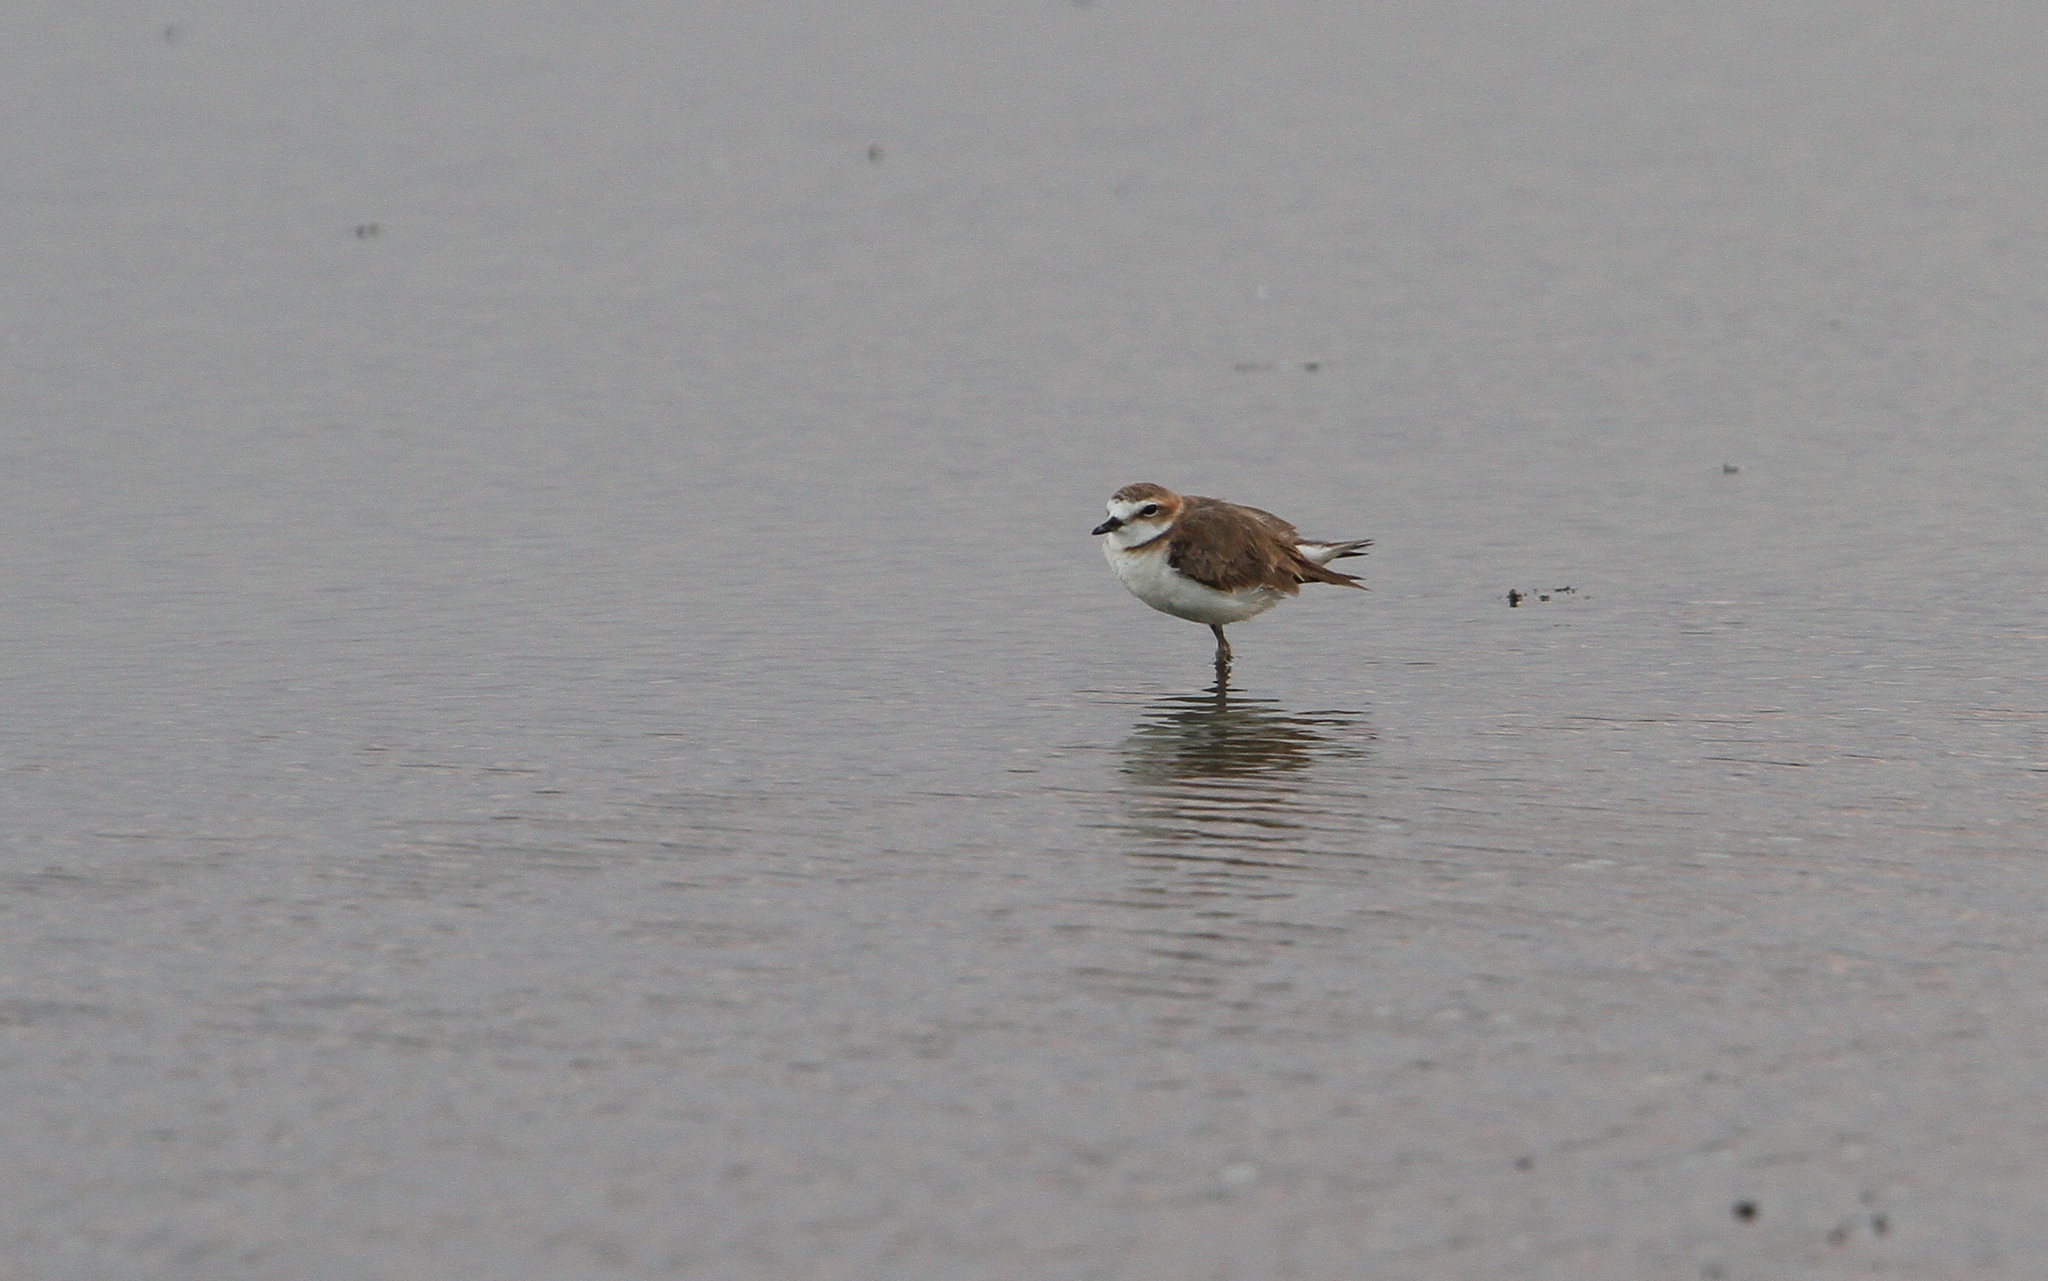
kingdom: Animalia
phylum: Chordata
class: Aves
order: Charadriiformes
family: Charadriidae
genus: Anarhynchus
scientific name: Anarhynchus
